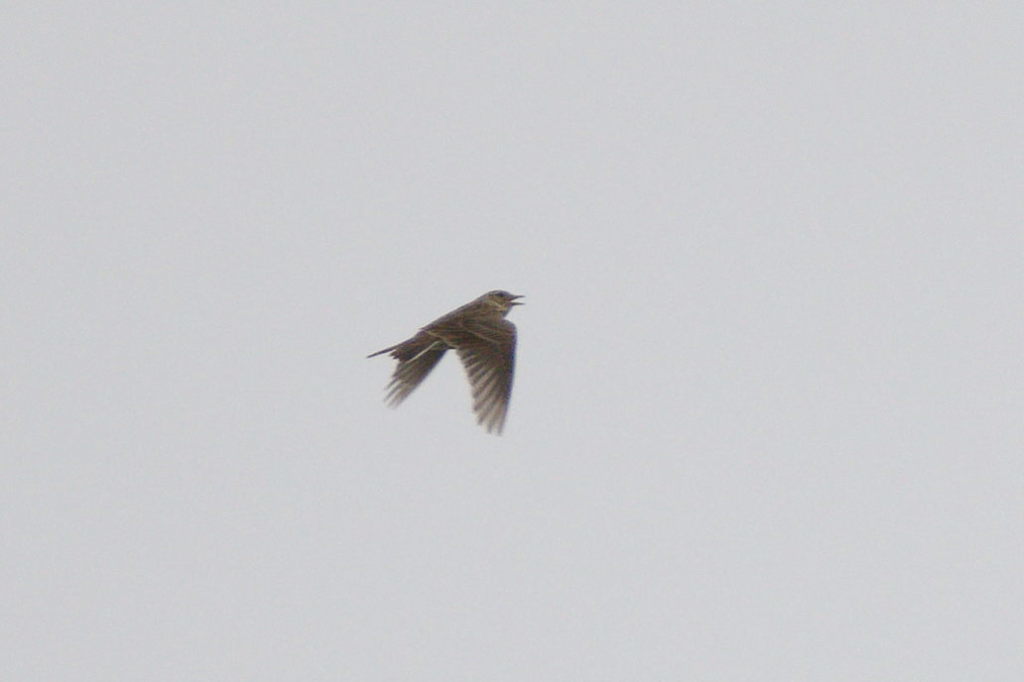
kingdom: Animalia
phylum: Chordata
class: Aves
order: Passeriformes
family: Alaudidae
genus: Alauda
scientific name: Alauda arvensis
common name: Eurasian skylark
